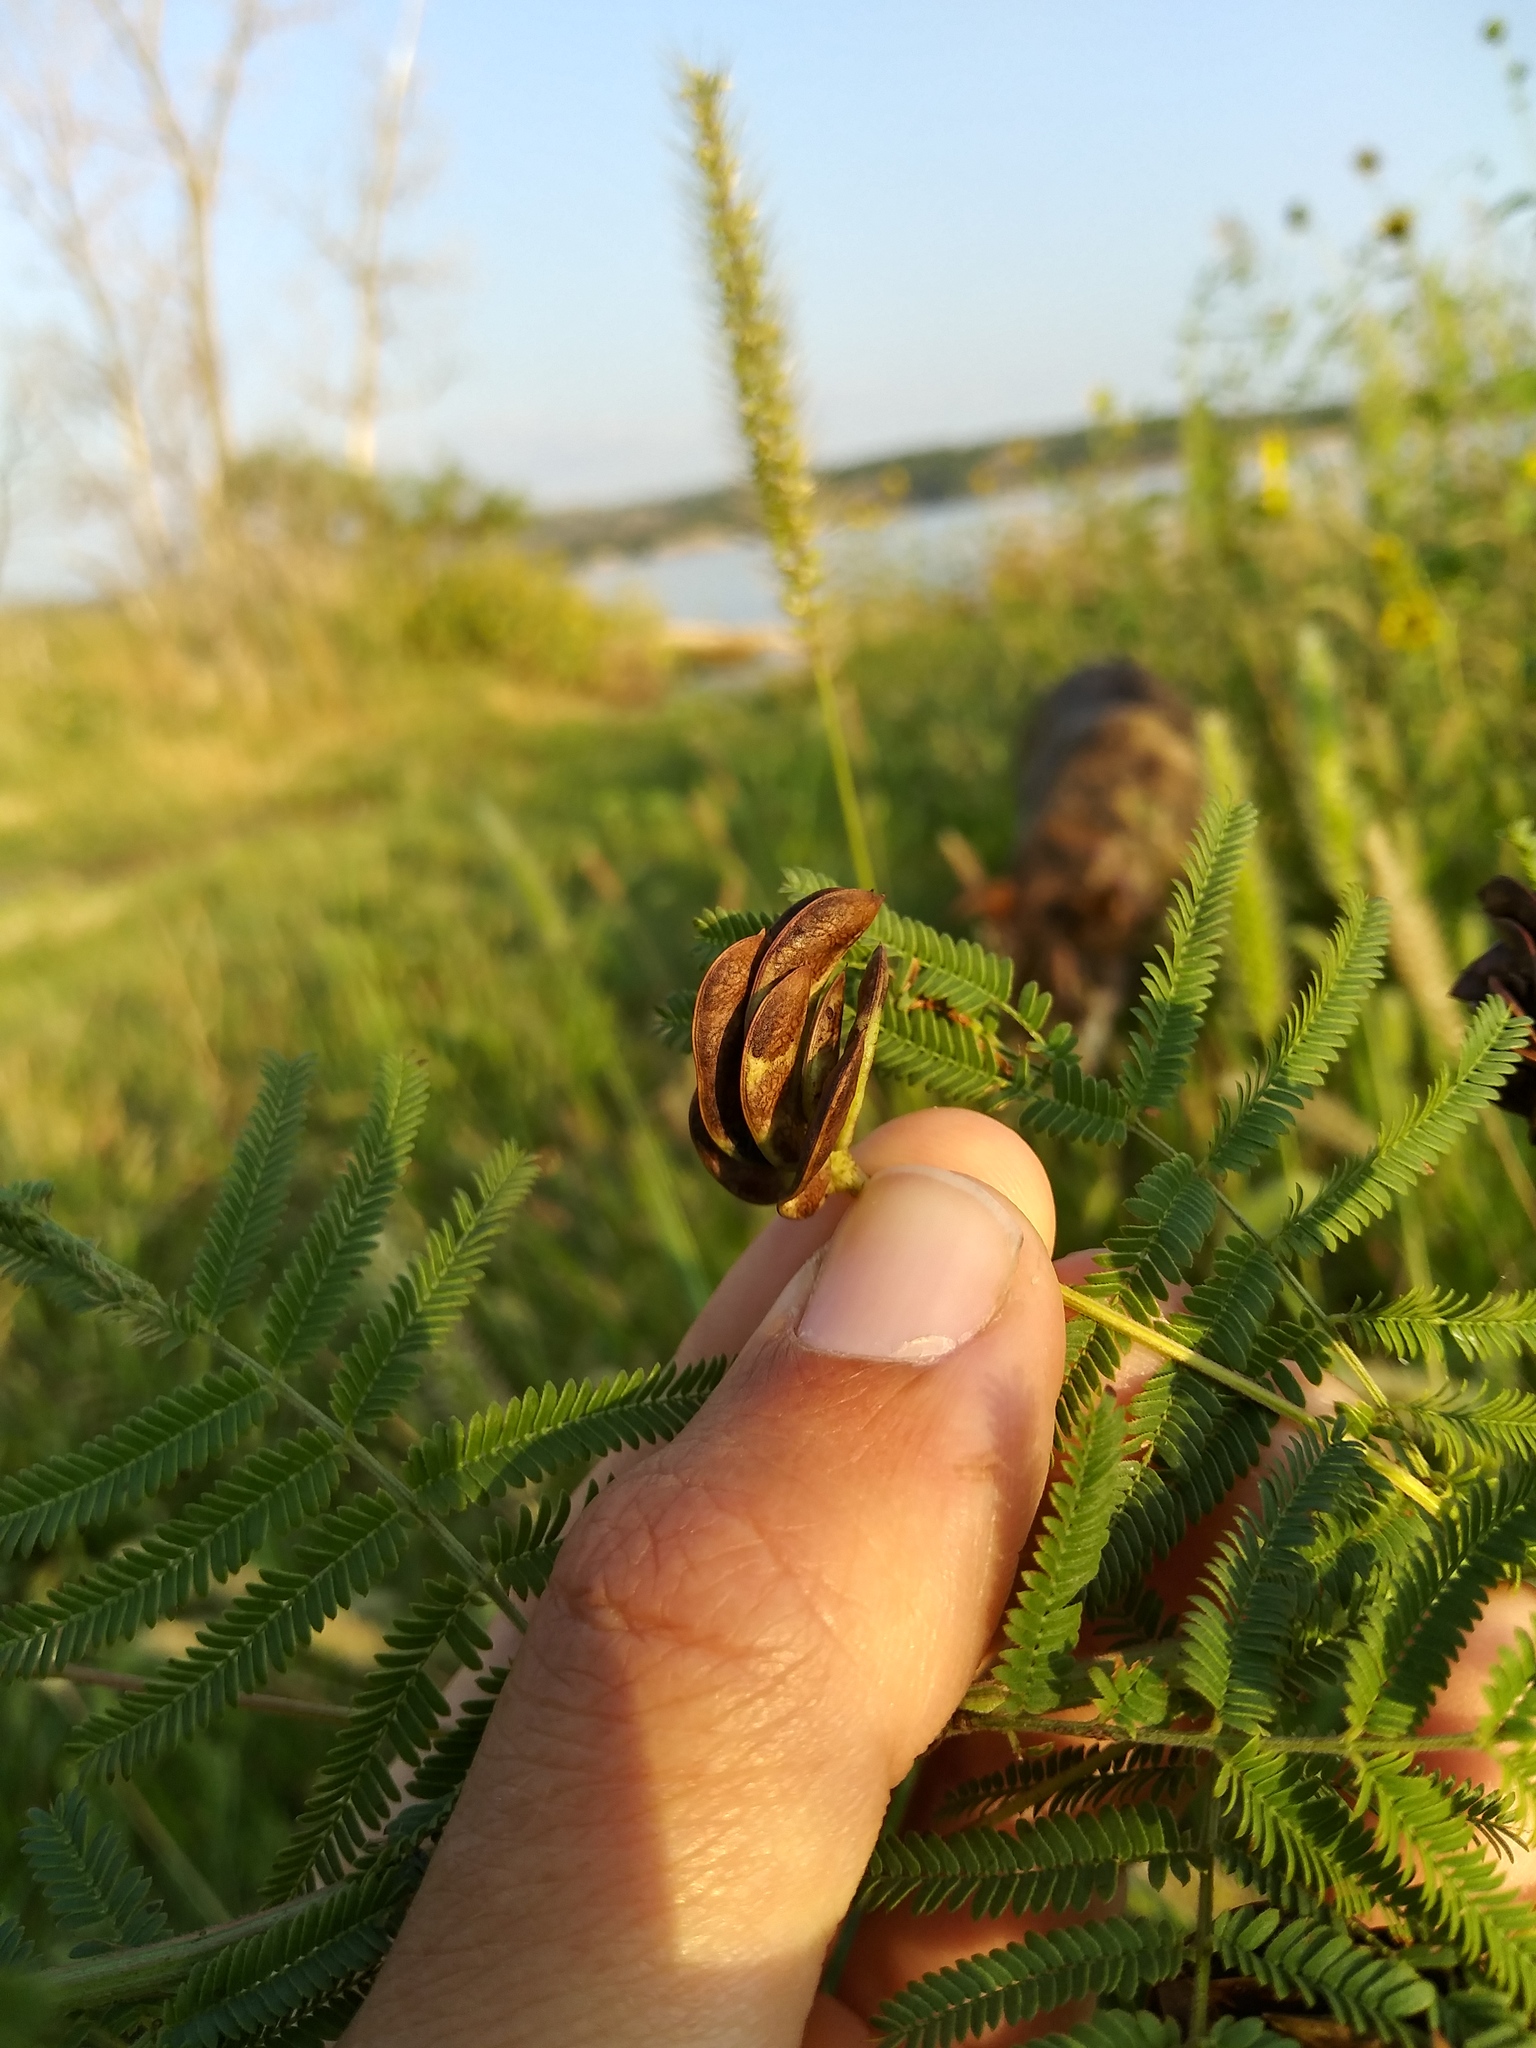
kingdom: Plantae
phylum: Tracheophyta
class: Magnoliopsida
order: Fabales
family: Fabaceae
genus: Desmanthus
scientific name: Desmanthus illinoensis
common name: Illinois bundle-flower
